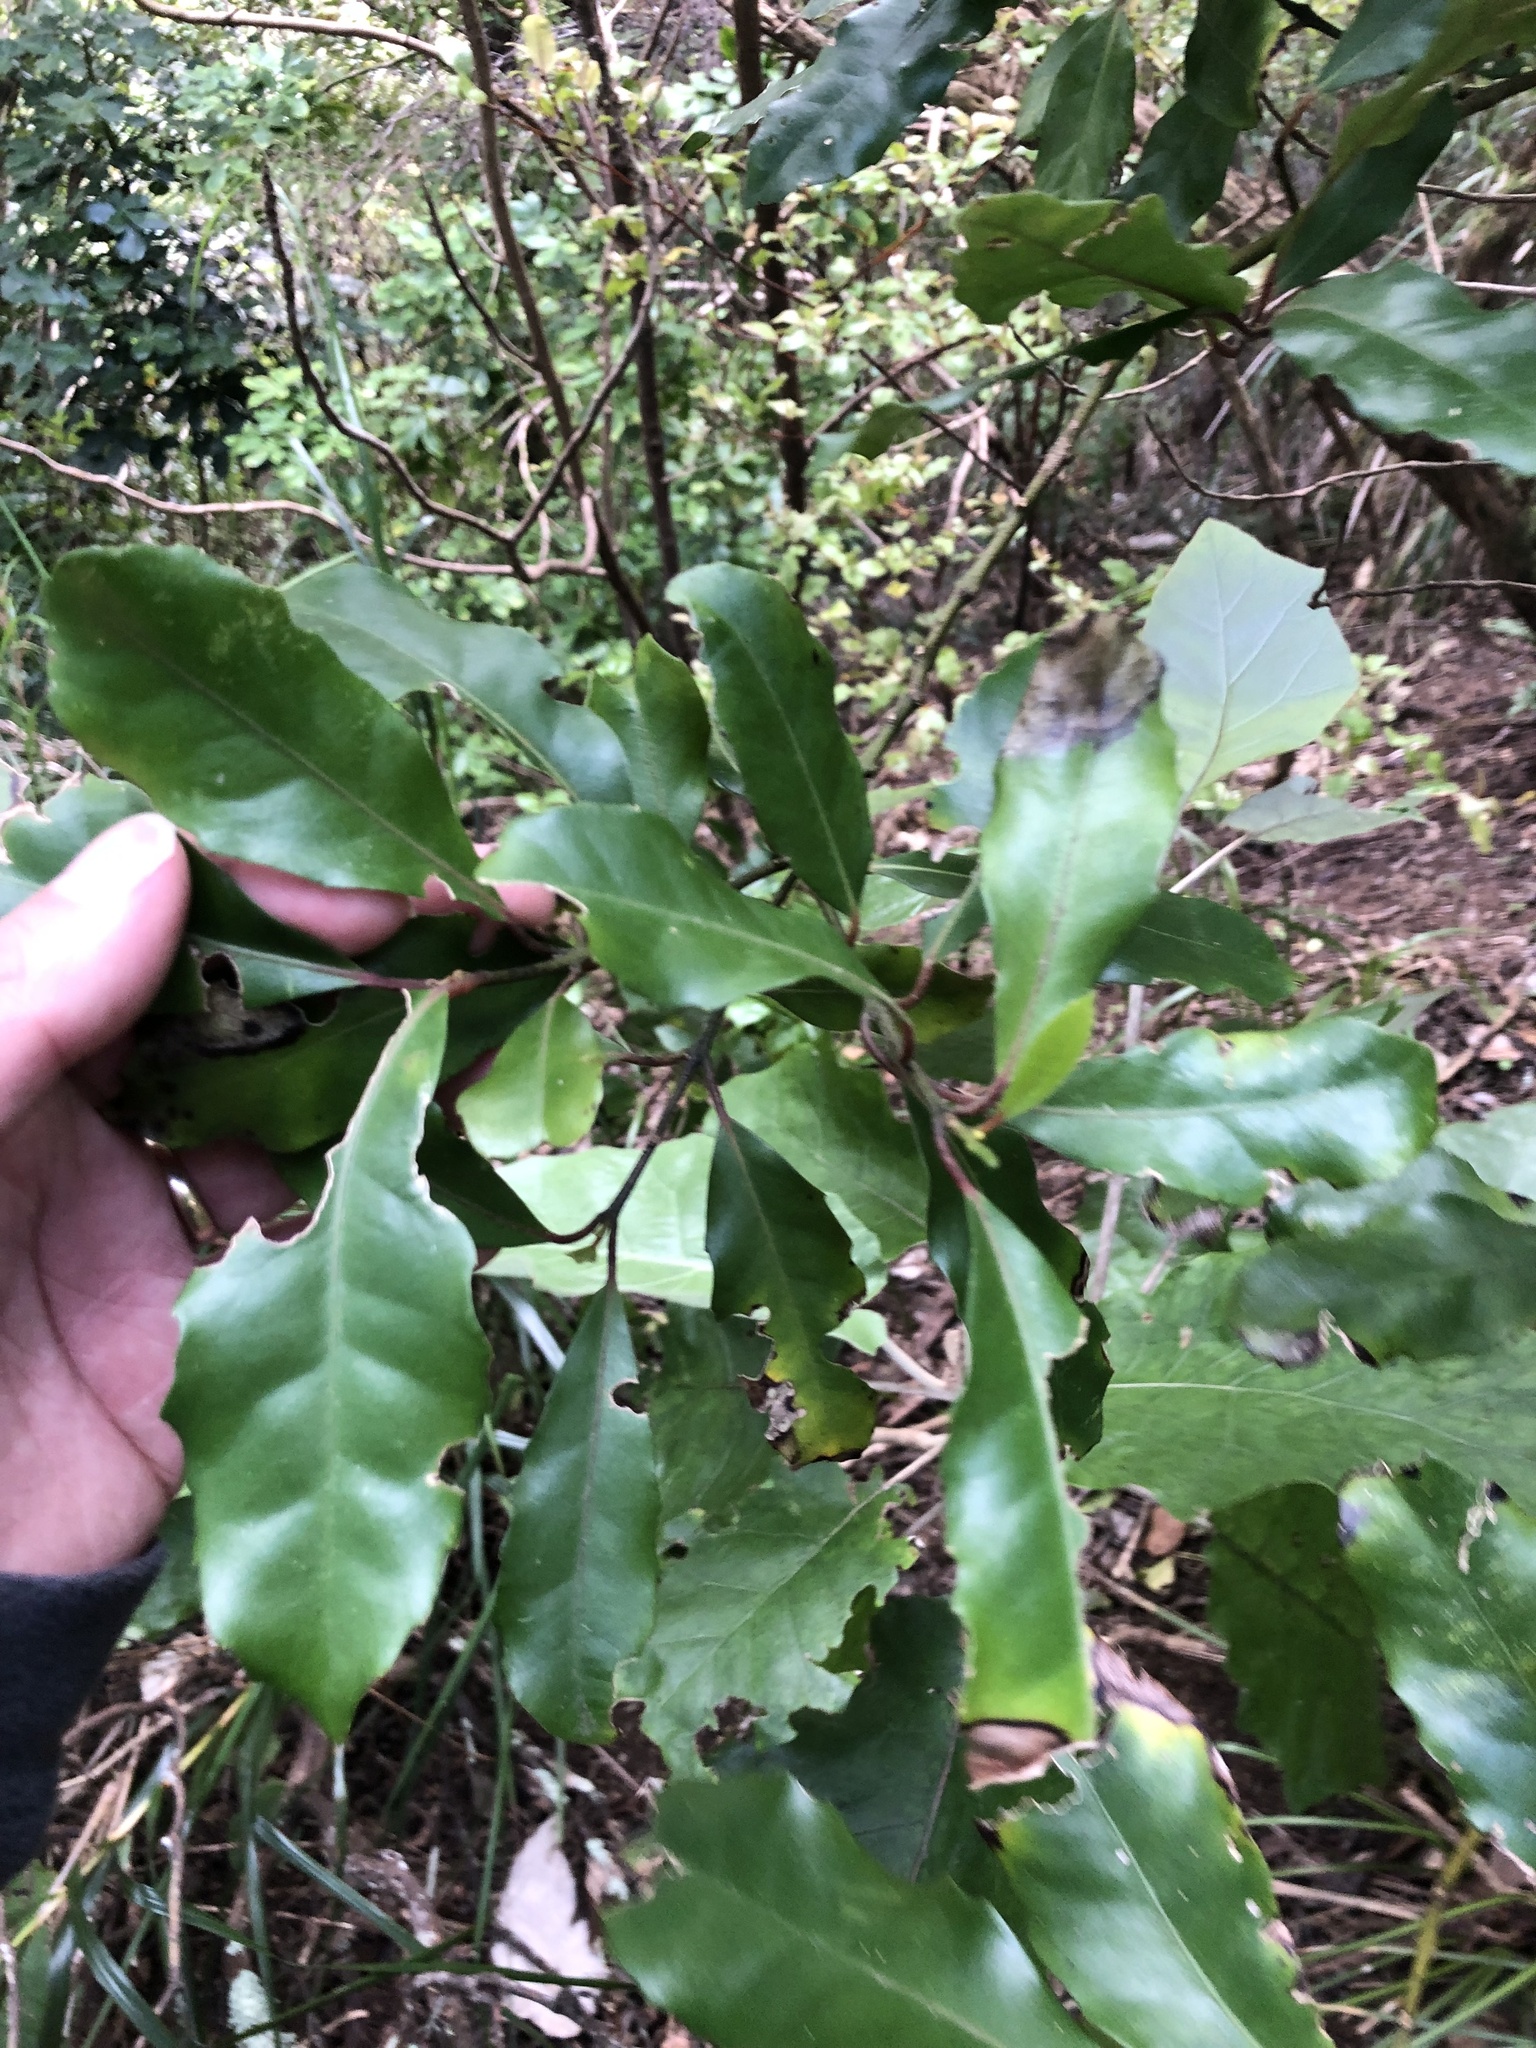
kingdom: Plantae
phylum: Tracheophyta
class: Magnoliopsida
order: Laurales
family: Monimiaceae
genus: Hedycarya
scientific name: Hedycarya arborea
